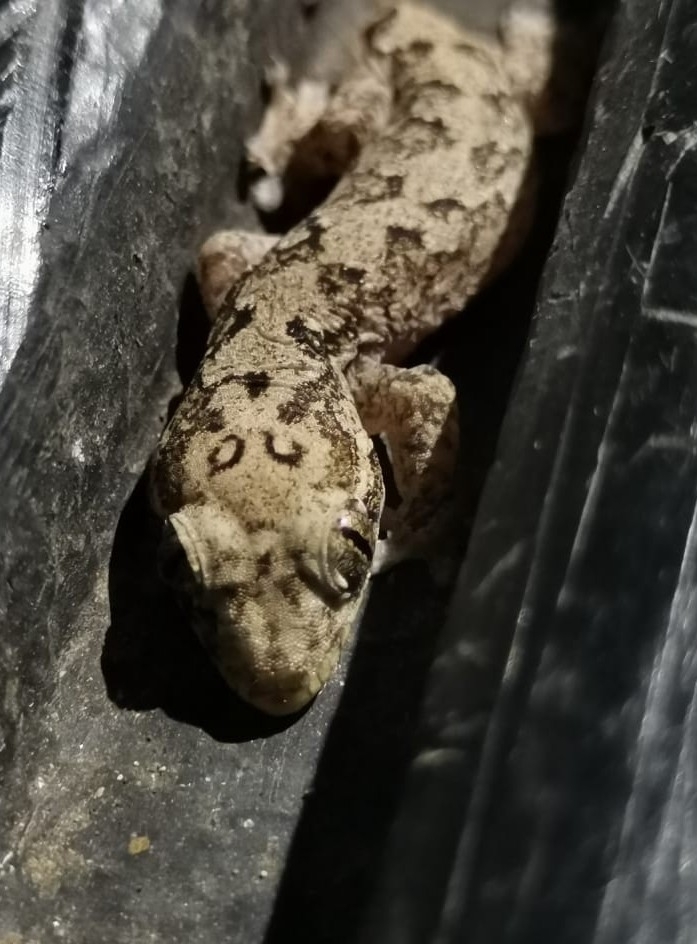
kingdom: Animalia
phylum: Chordata
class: Squamata
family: Phyllodactylidae
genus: Thecadactylus
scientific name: Thecadactylus rapicauda
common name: Turnip-tailed gecko
